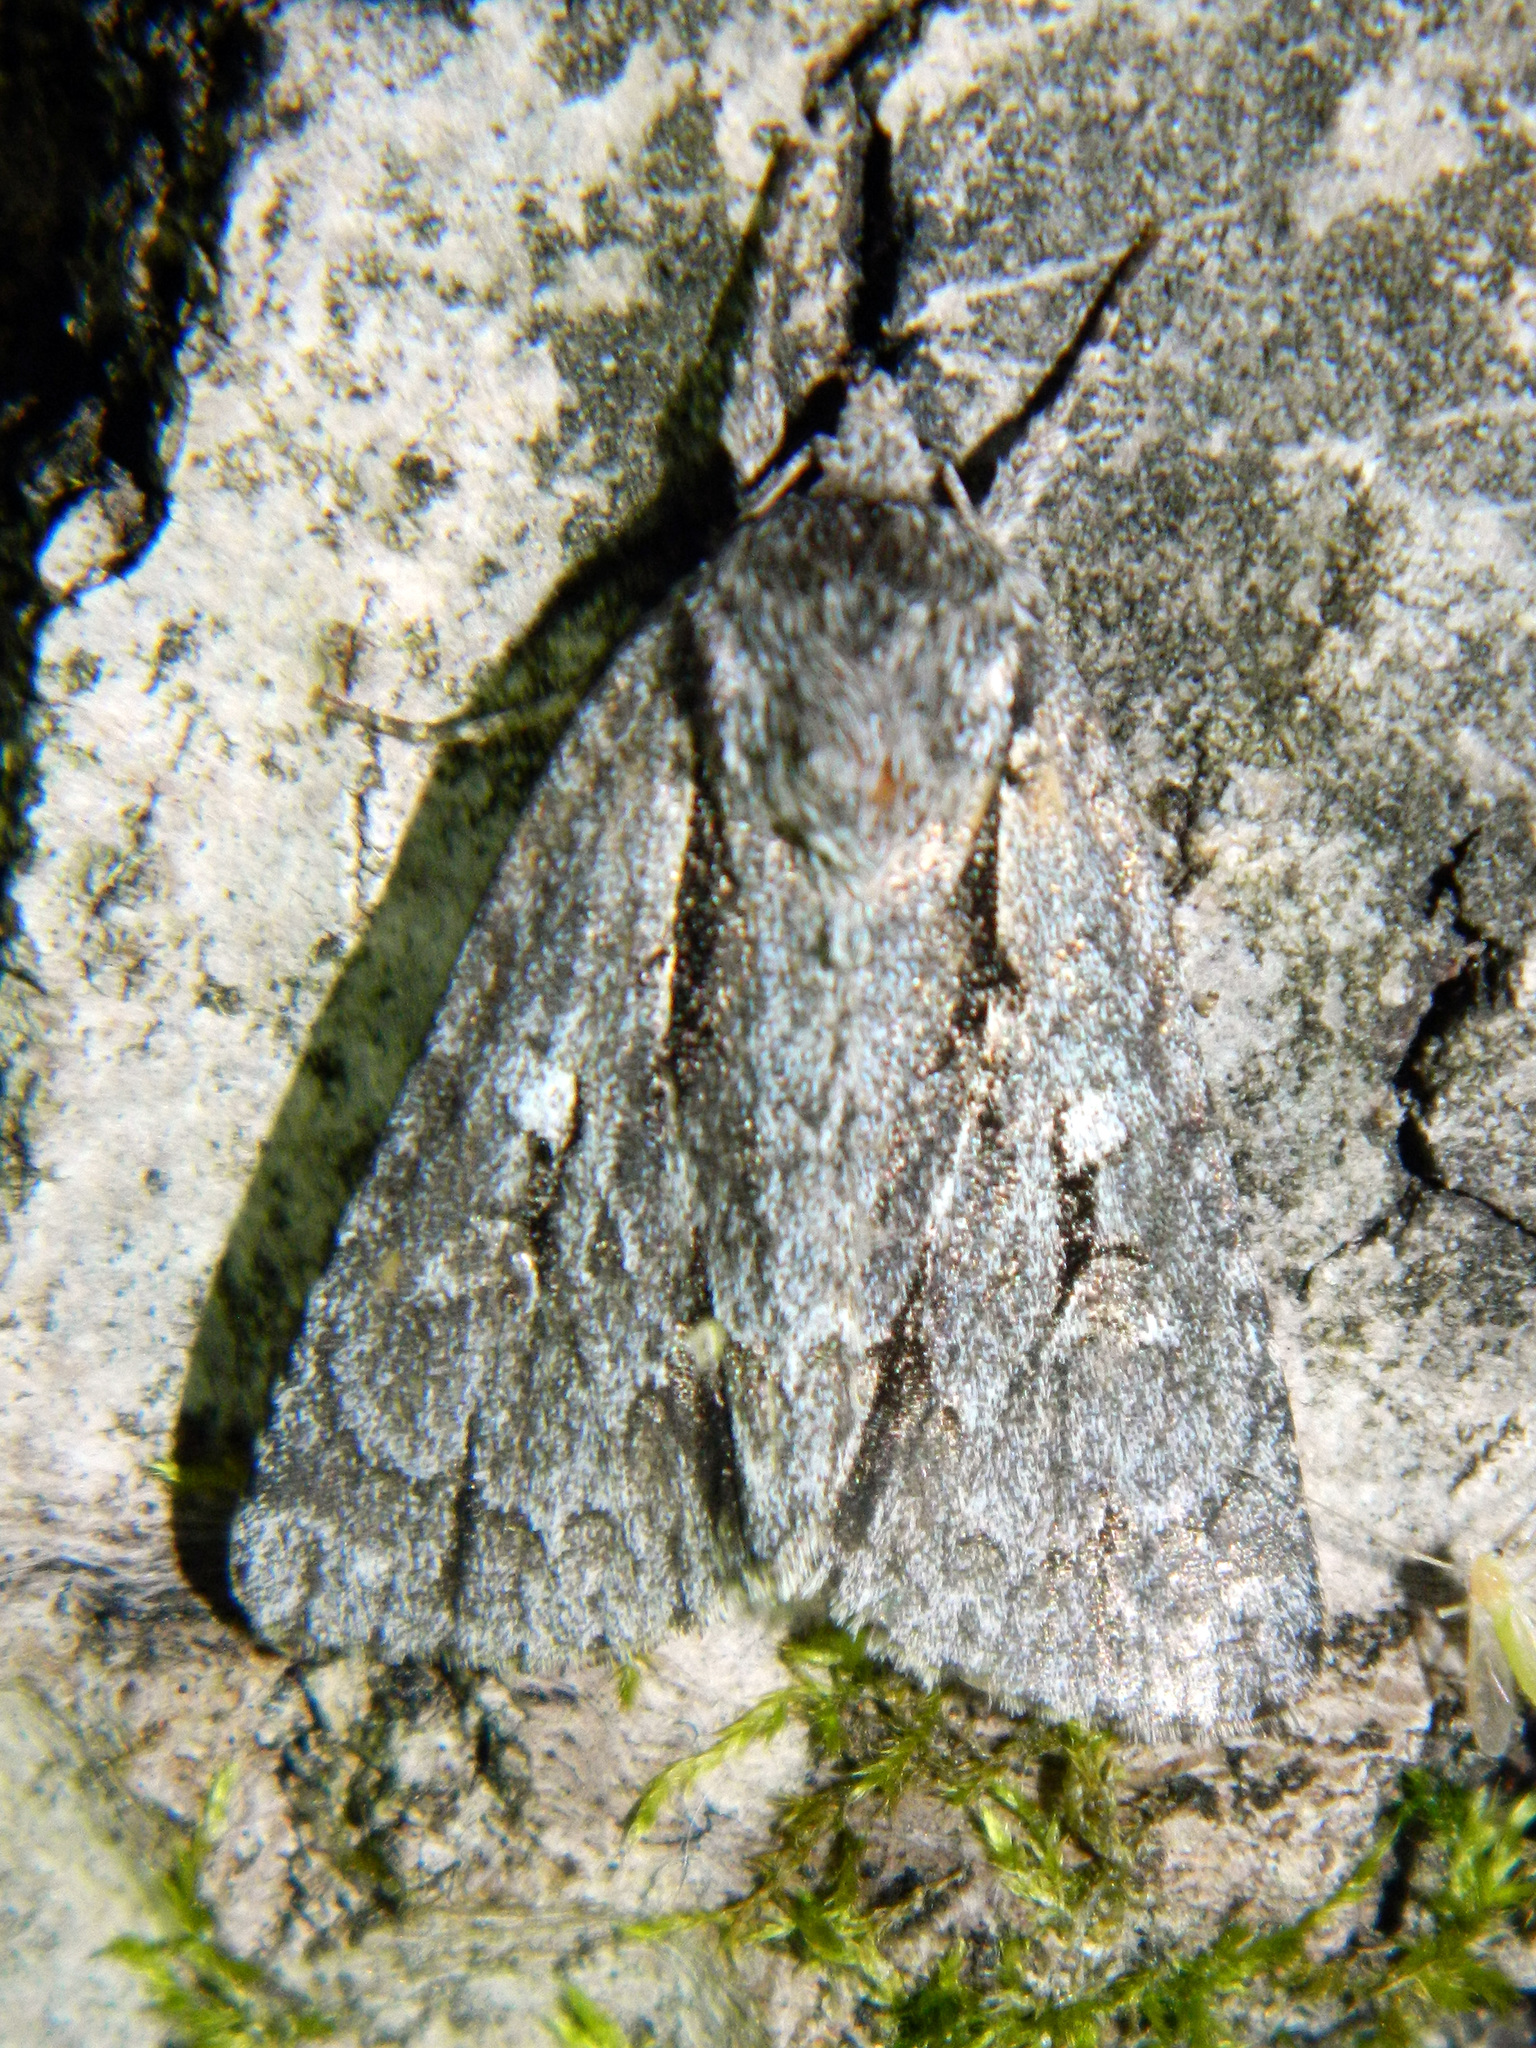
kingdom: Animalia
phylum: Arthropoda
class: Insecta
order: Lepidoptera
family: Noctuidae
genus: Acronicta
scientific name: Acronicta hasta
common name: Cherry dagger
